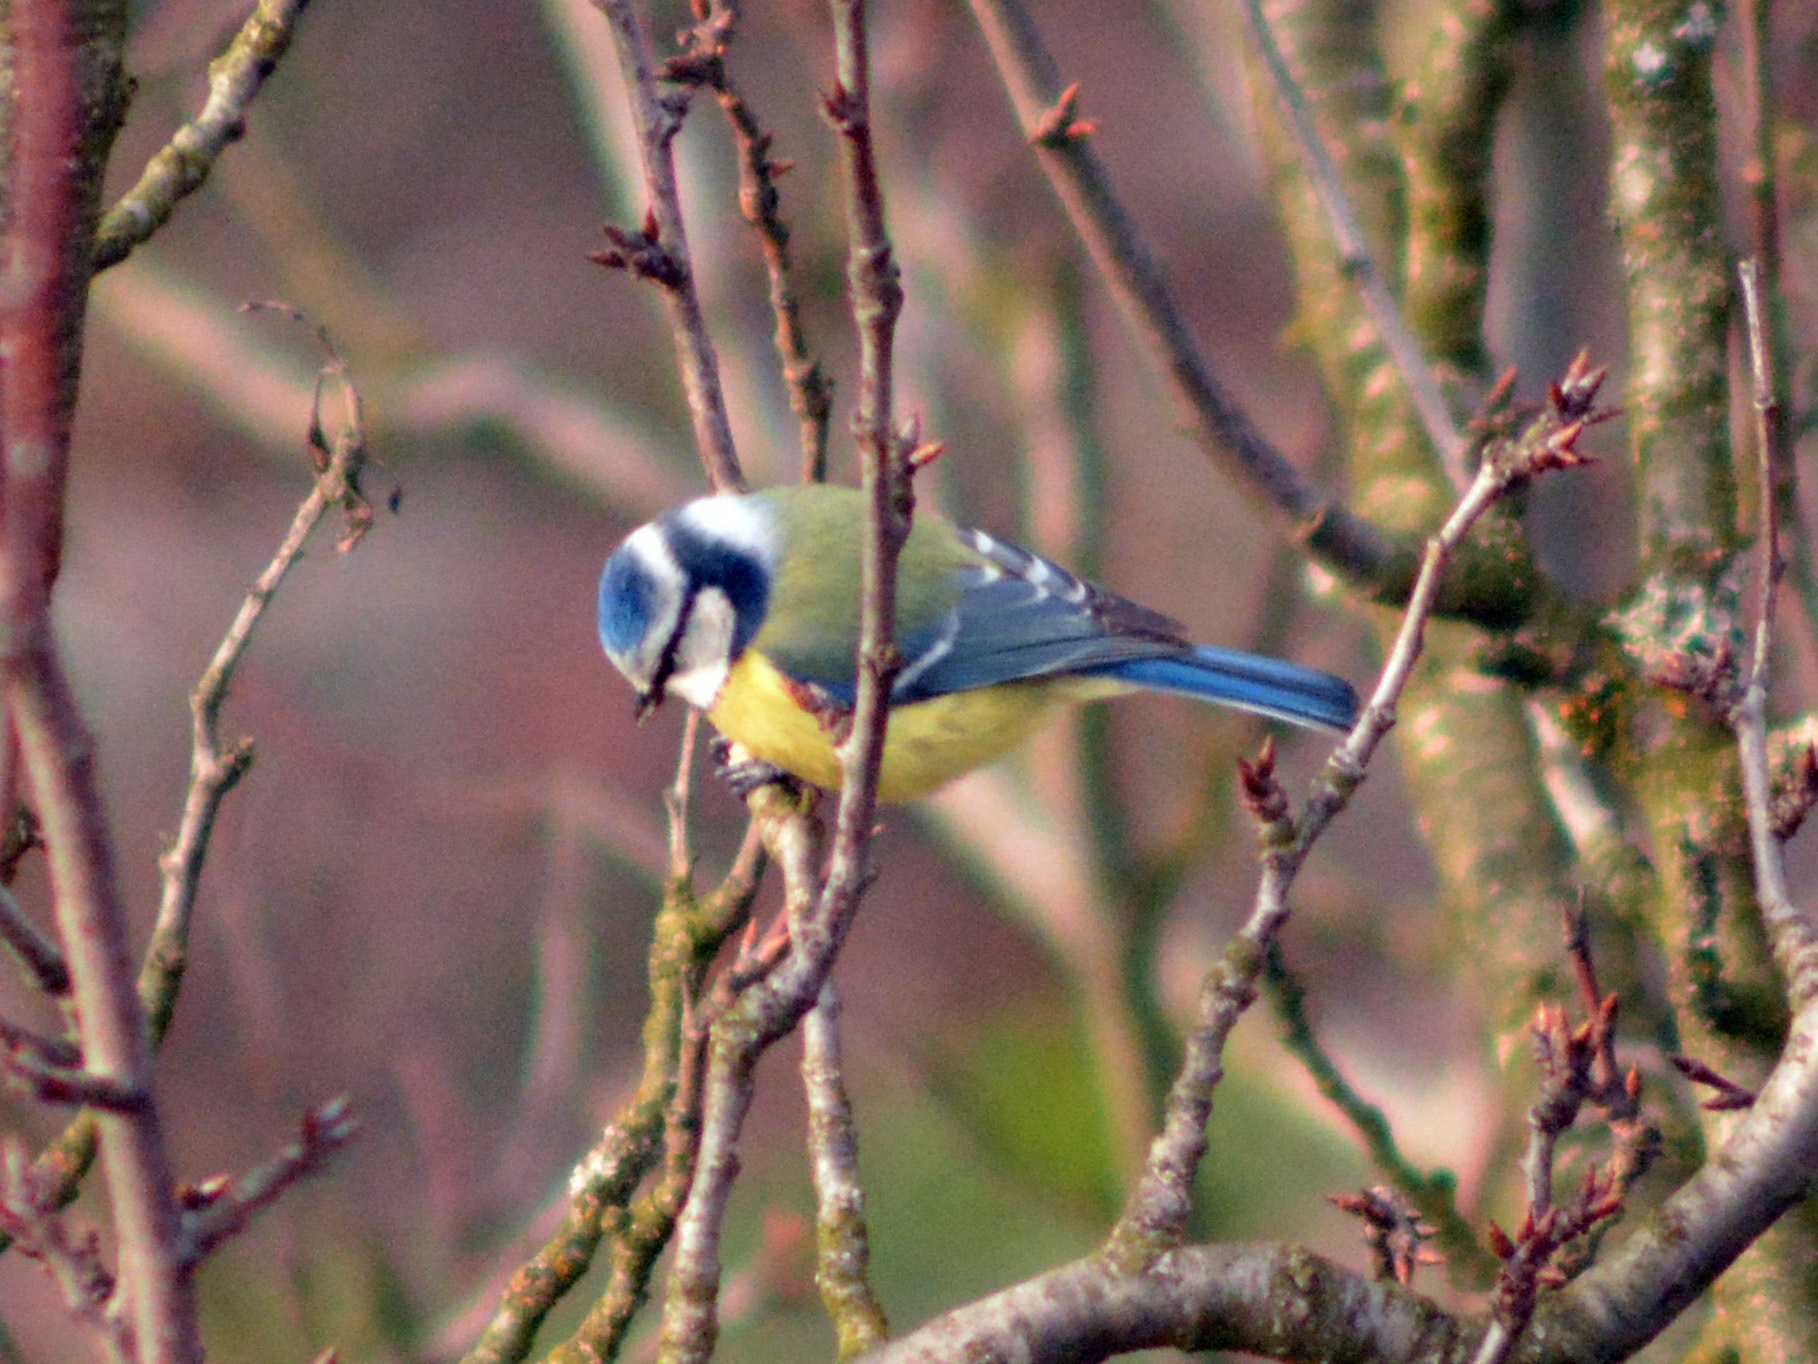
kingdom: Animalia
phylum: Chordata
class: Aves
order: Passeriformes
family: Paridae
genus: Cyanistes
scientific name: Cyanistes caeruleus
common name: Eurasian blue tit
